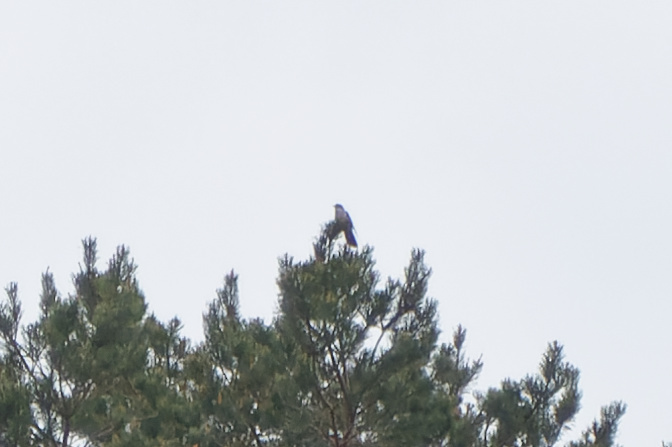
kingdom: Animalia
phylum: Chordata
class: Aves
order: Cuculiformes
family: Cuculidae
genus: Cuculus
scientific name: Cuculus canorus
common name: Common cuckoo
